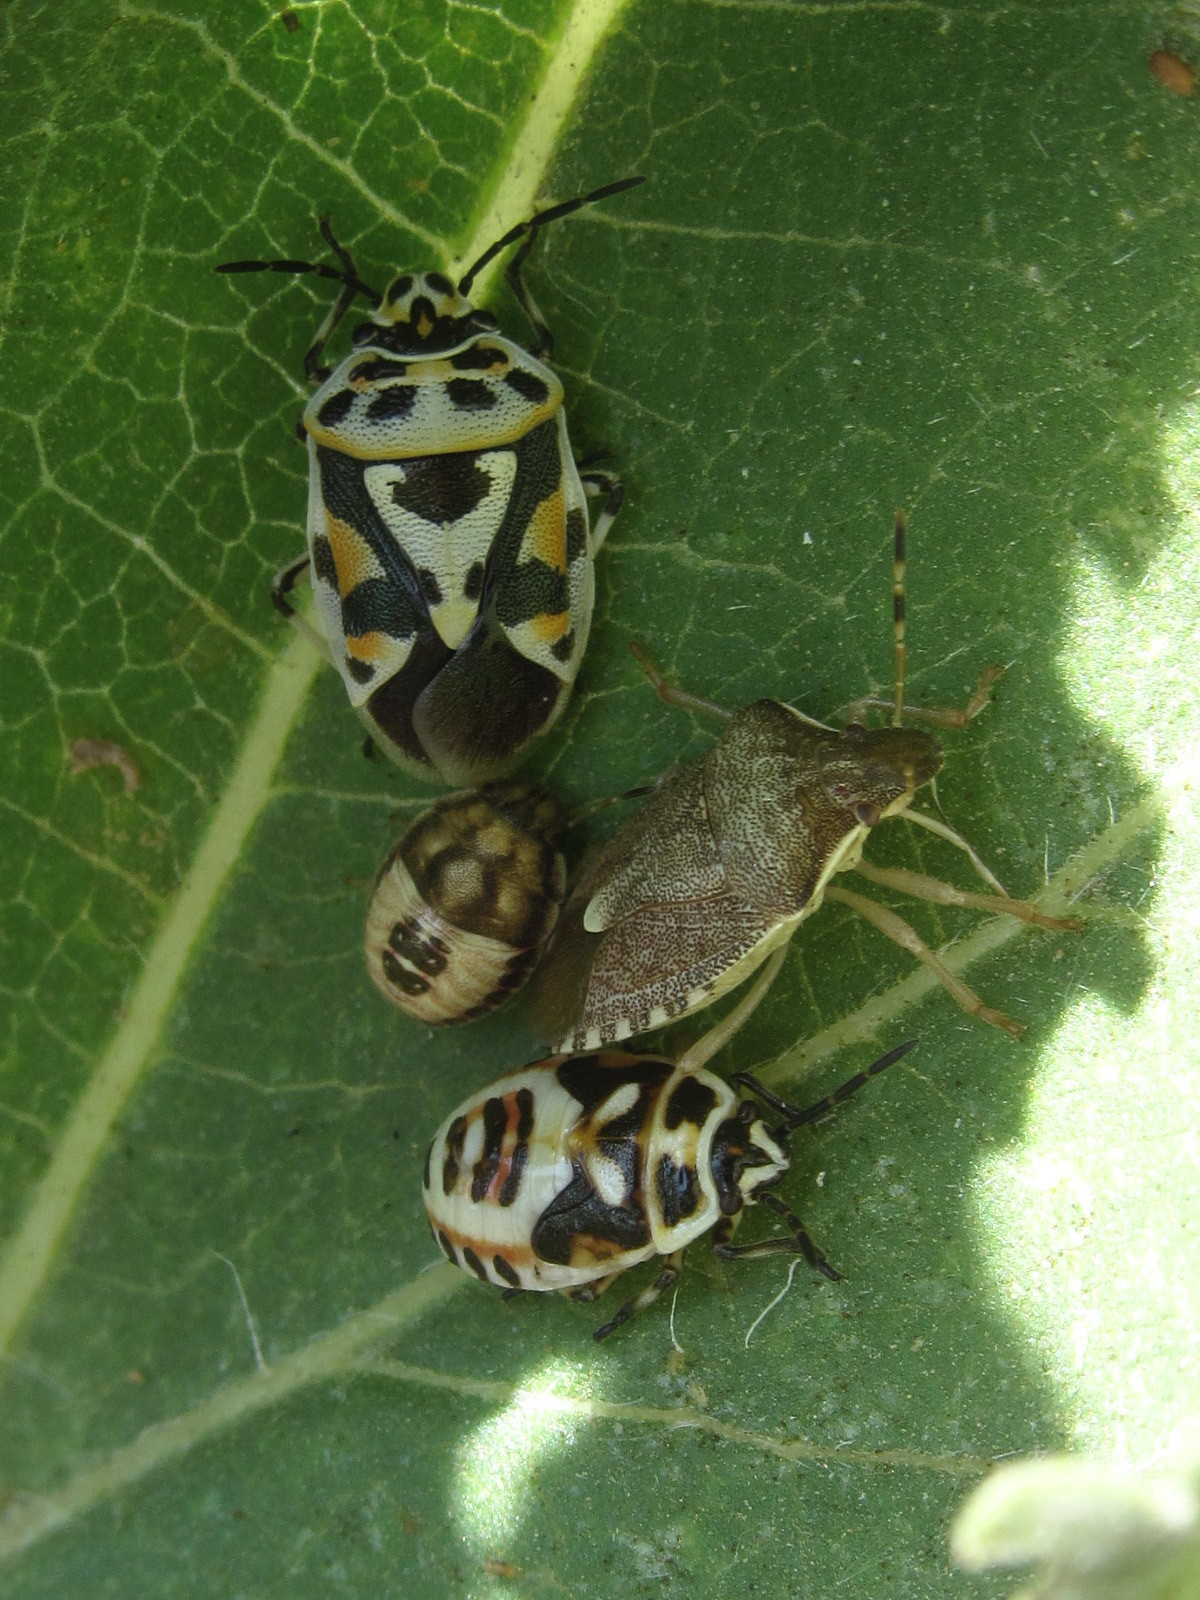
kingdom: Animalia
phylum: Arthropoda
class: Insecta
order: Hemiptera
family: Pentatomidae
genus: Holcostethus
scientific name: Holcostethus strictus
